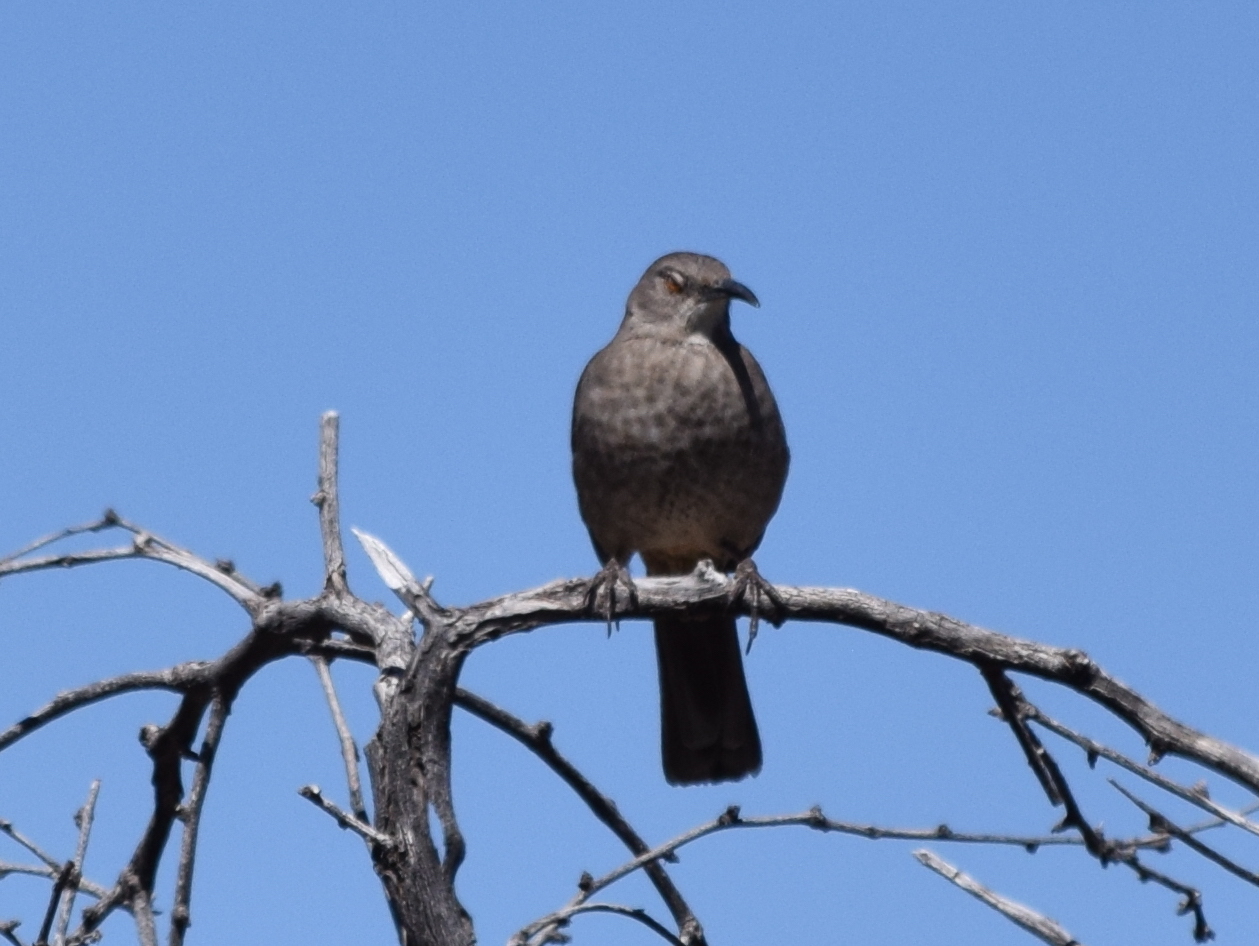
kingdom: Animalia
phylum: Chordata
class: Aves
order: Passeriformes
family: Mimidae
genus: Toxostoma
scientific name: Toxostoma curvirostre
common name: Curve-billed thrasher
